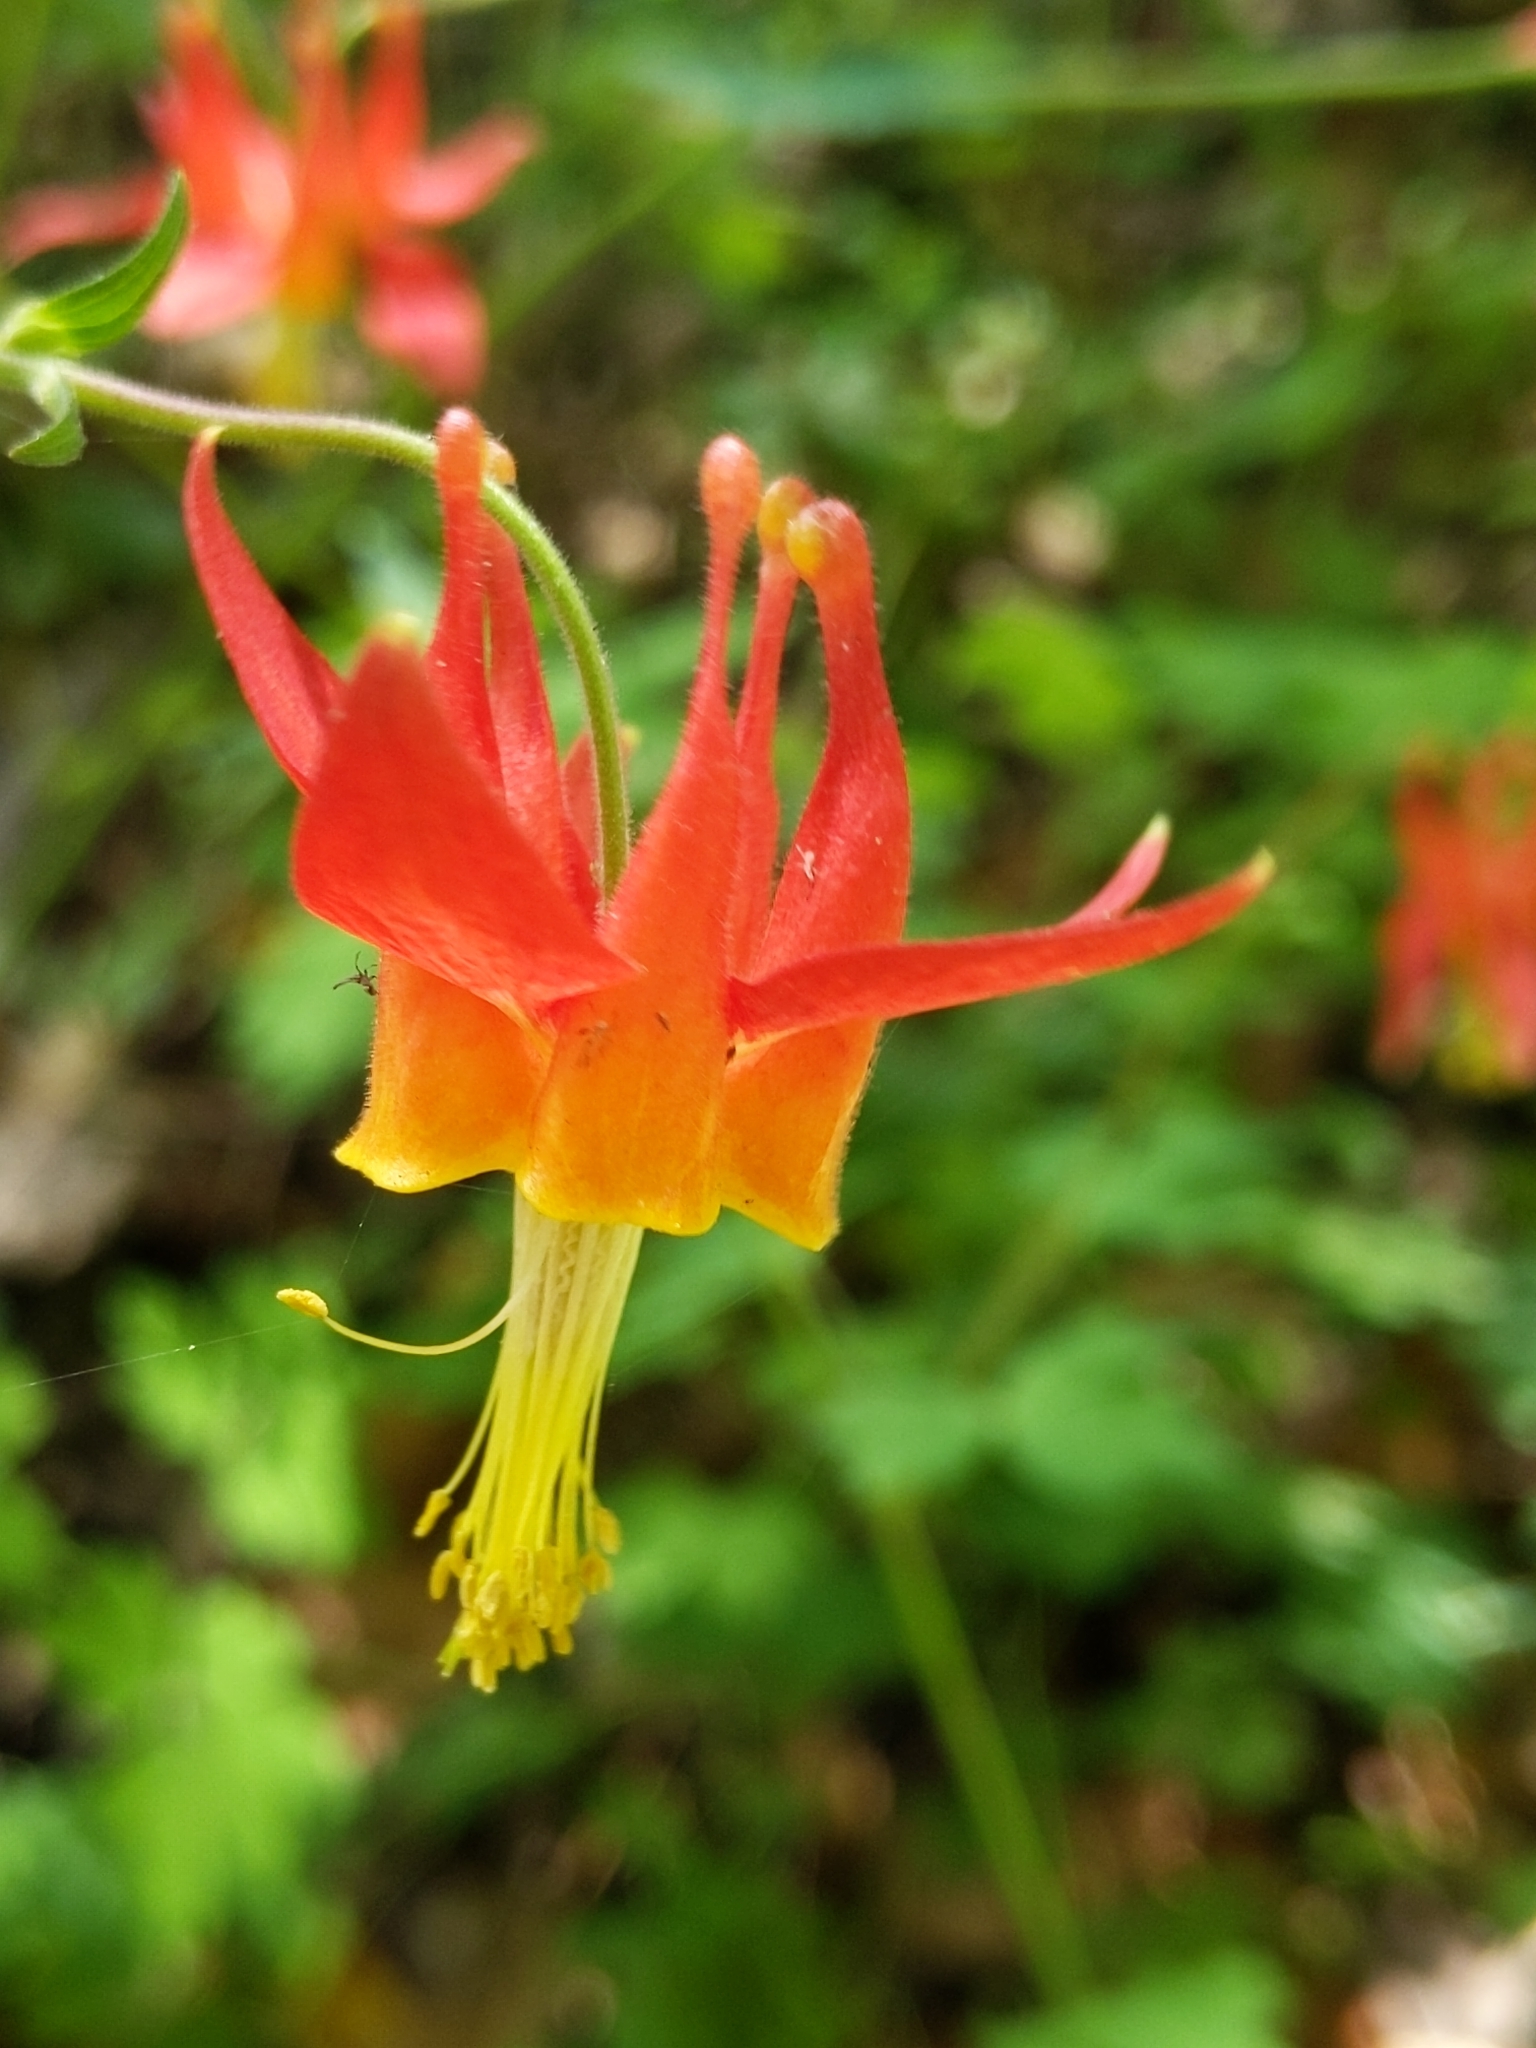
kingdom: Plantae
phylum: Tracheophyta
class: Magnoliopsida
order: Ranunculales
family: Ranunculaceae
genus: Aquilegia
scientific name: Aquilegia formosa
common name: Sitka columbine
